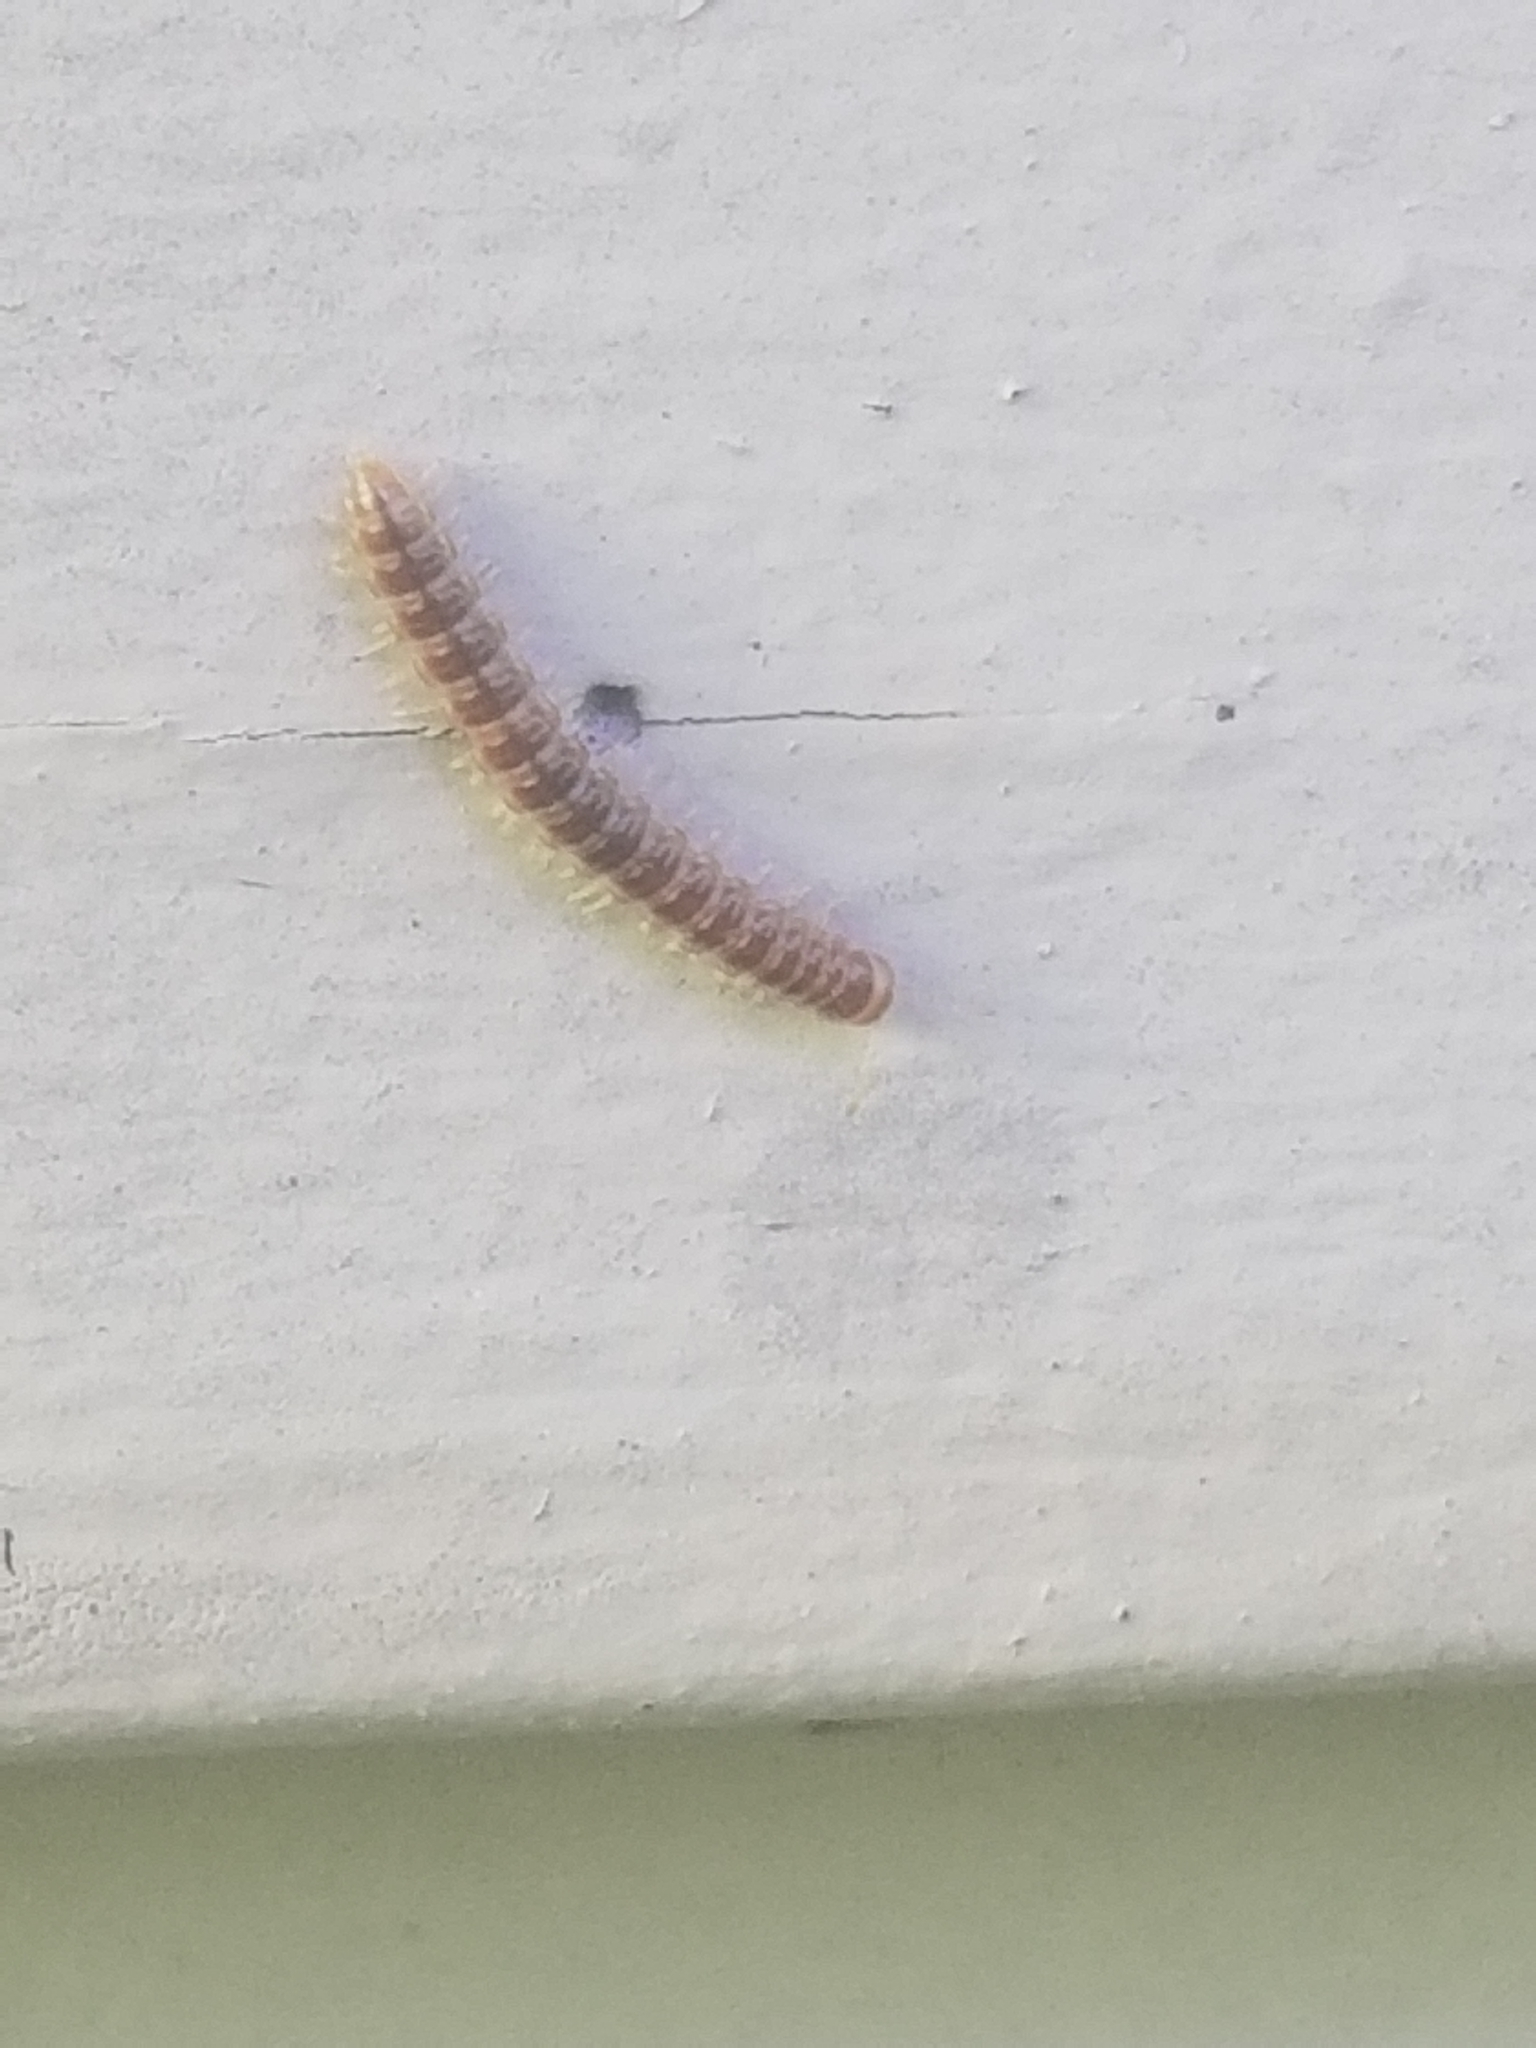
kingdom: Animalia
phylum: Arthropoda
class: Diplopoda
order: Polydesmida
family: Paradoxosomatidae
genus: Oxidus
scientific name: Oxidus gracilis
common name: Greenhouse millipede
